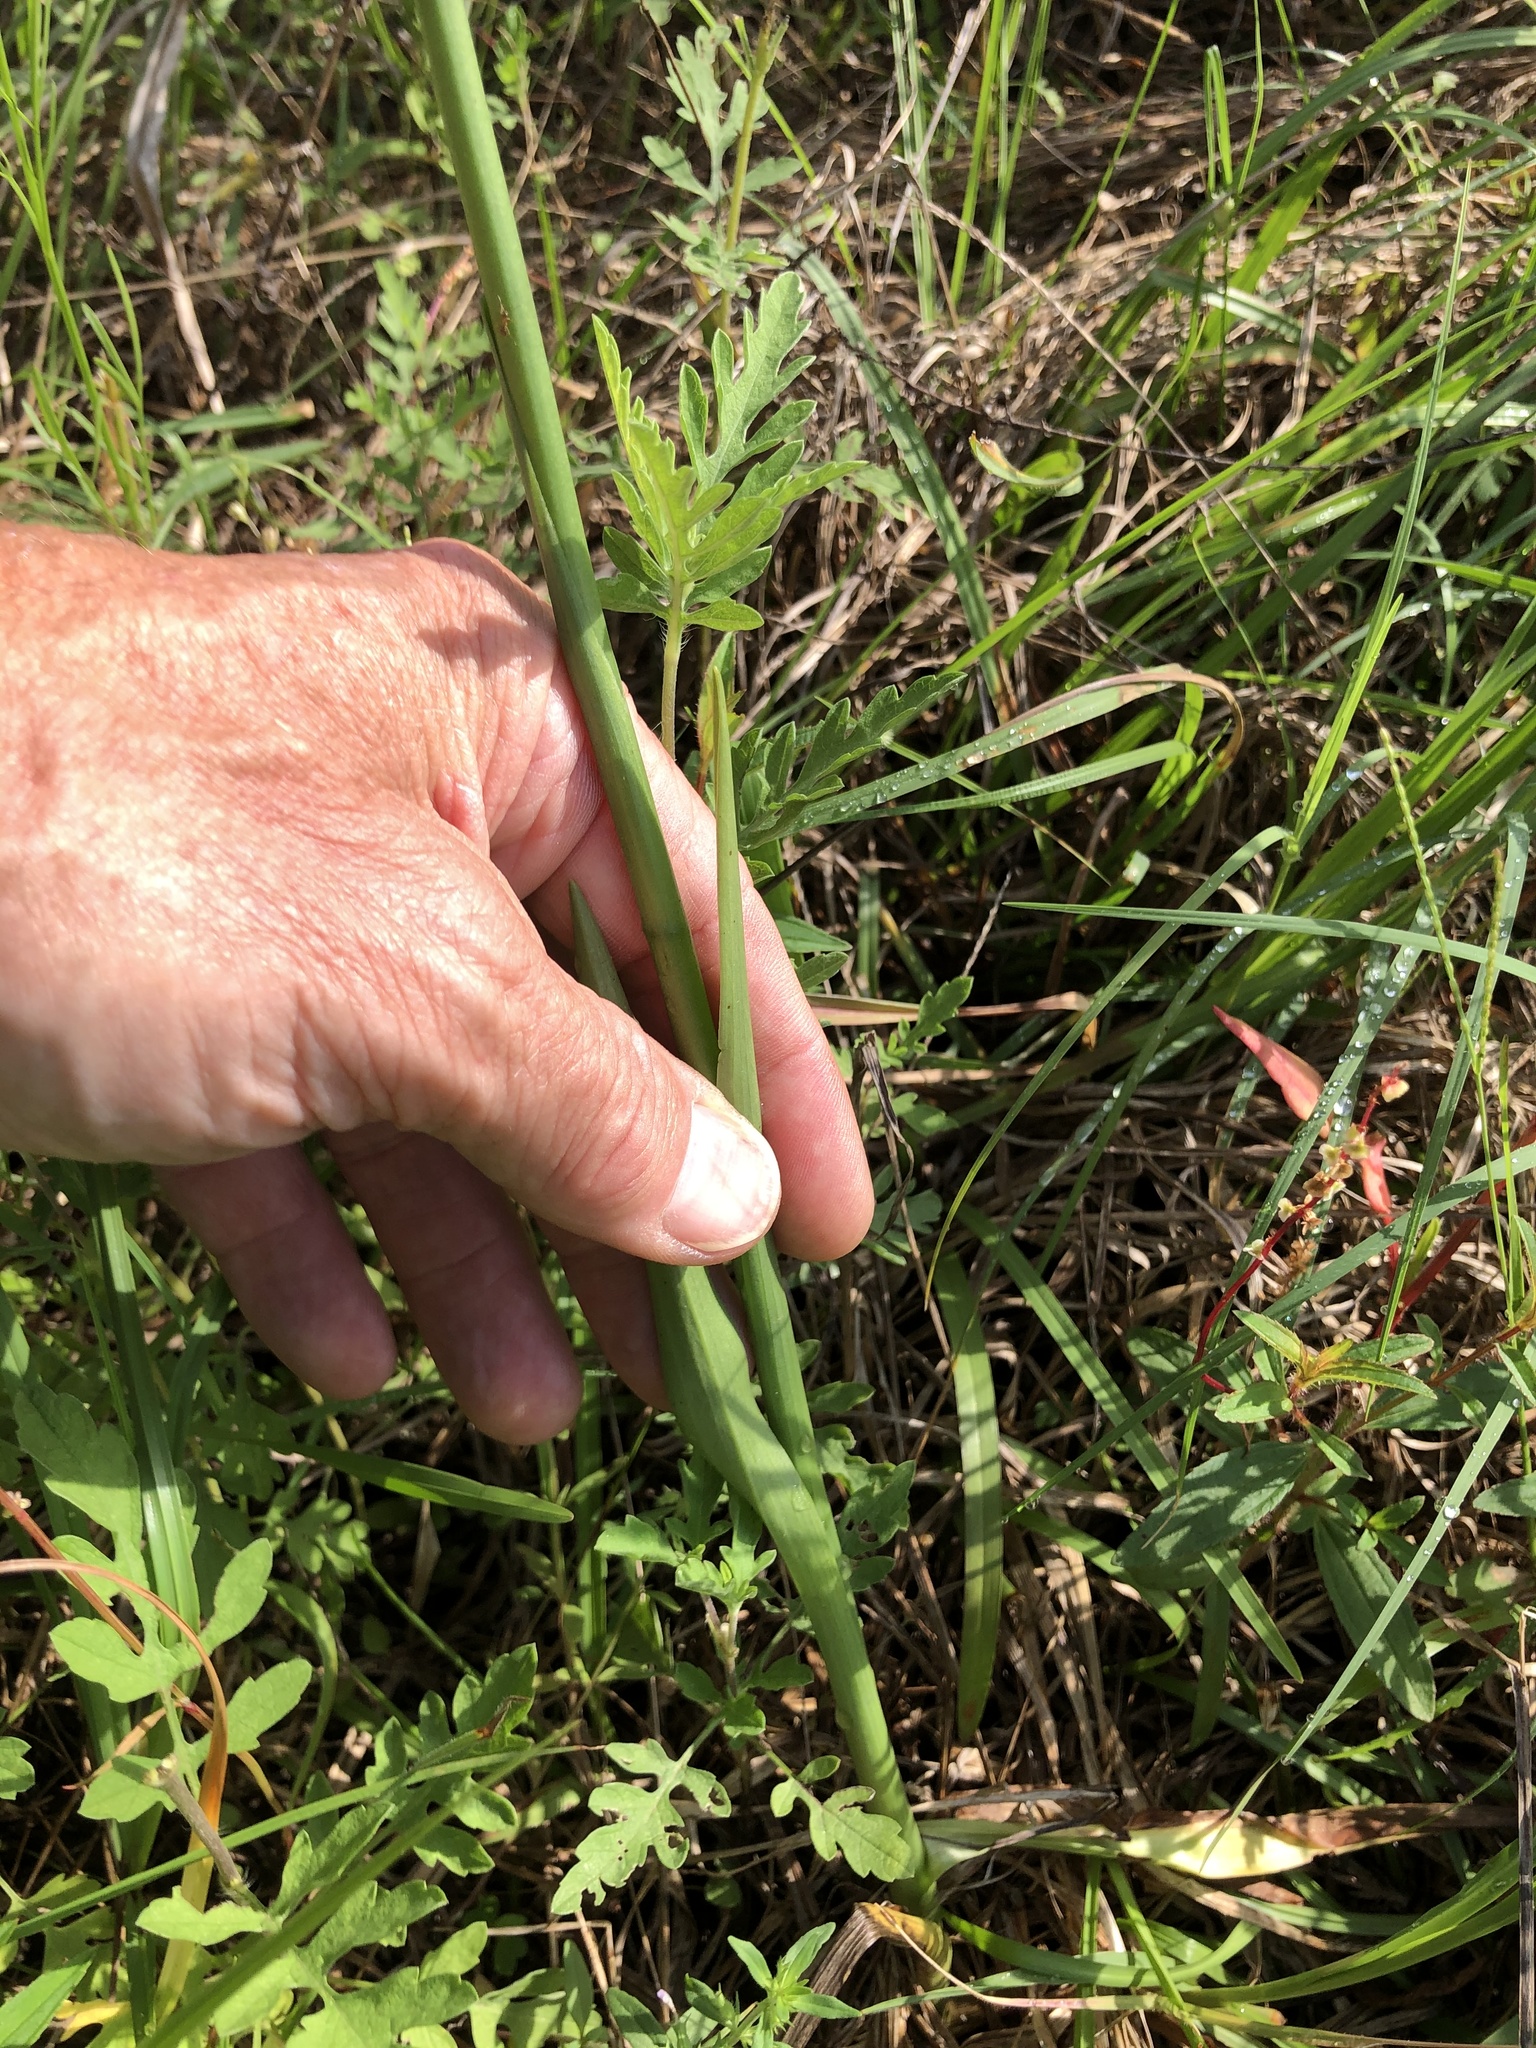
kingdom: Plantae
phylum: Tracheophyta
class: Liliopsida
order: Asparagales
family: Orchidaceae
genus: Spiranthes
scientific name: Spiranthes vernalis
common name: Spring ladies'-tresses
